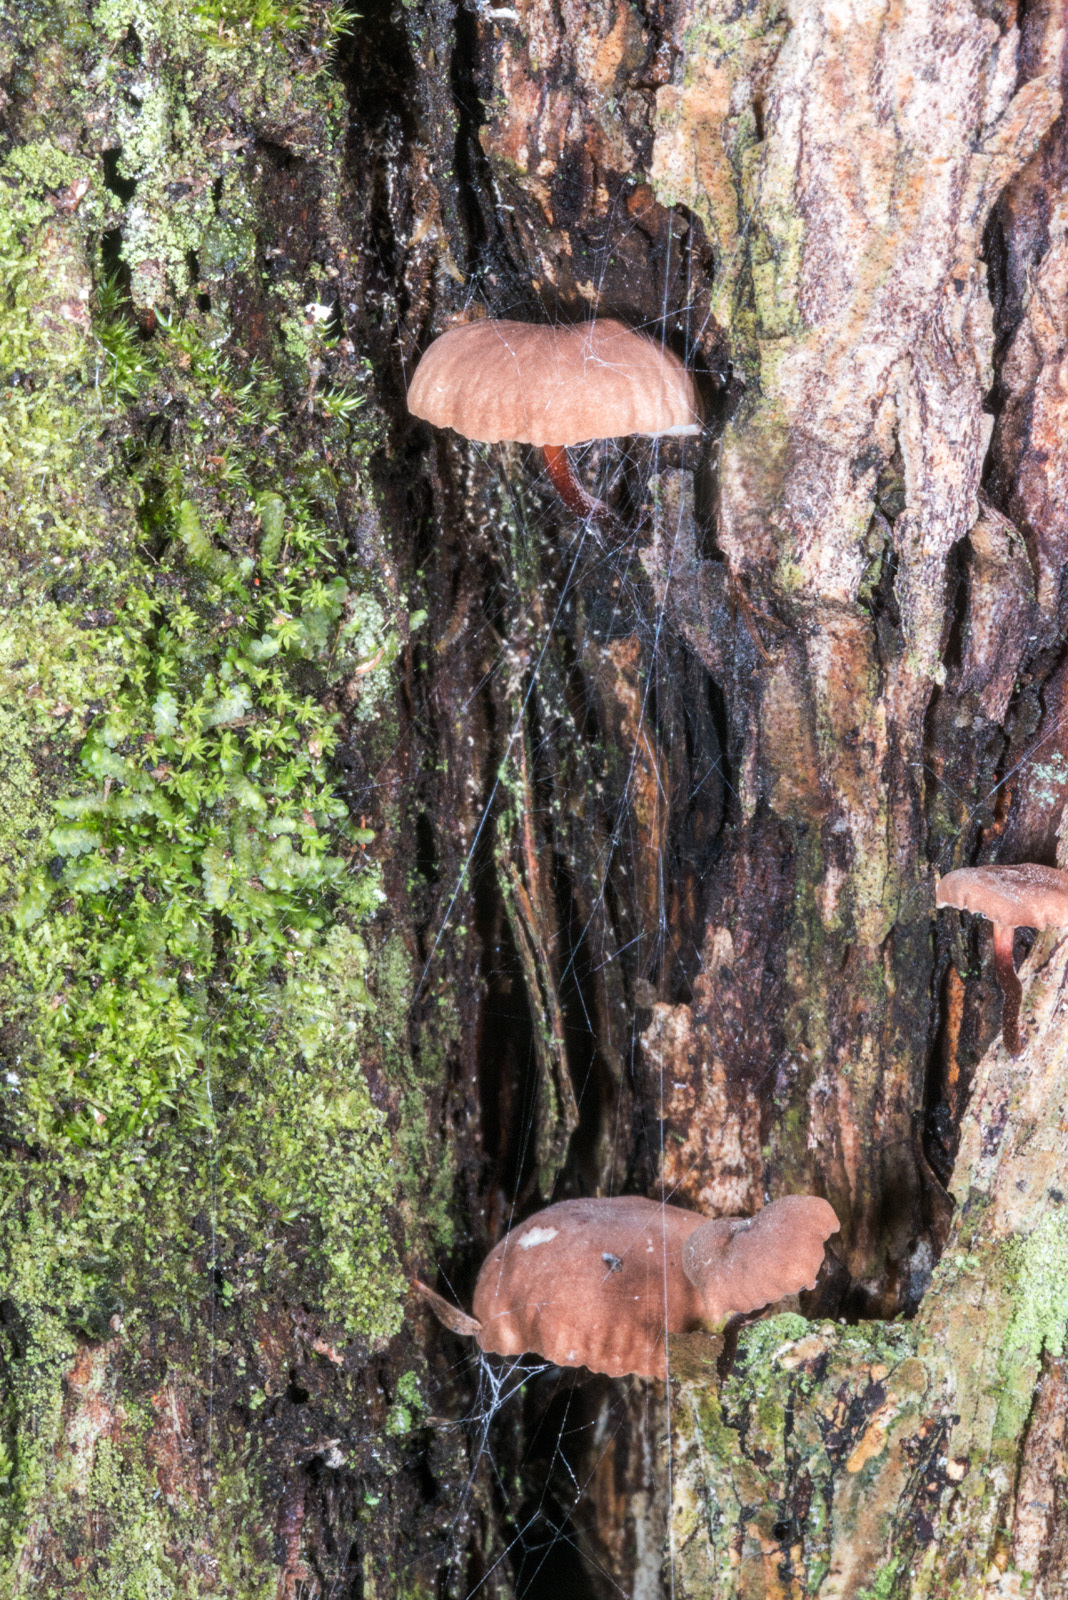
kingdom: Fungi
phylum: Basidiomycota
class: Agaricomycetes
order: Agaricales
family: Omphalotaceae
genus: Mycetinis
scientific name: Mycetinis curraniae
